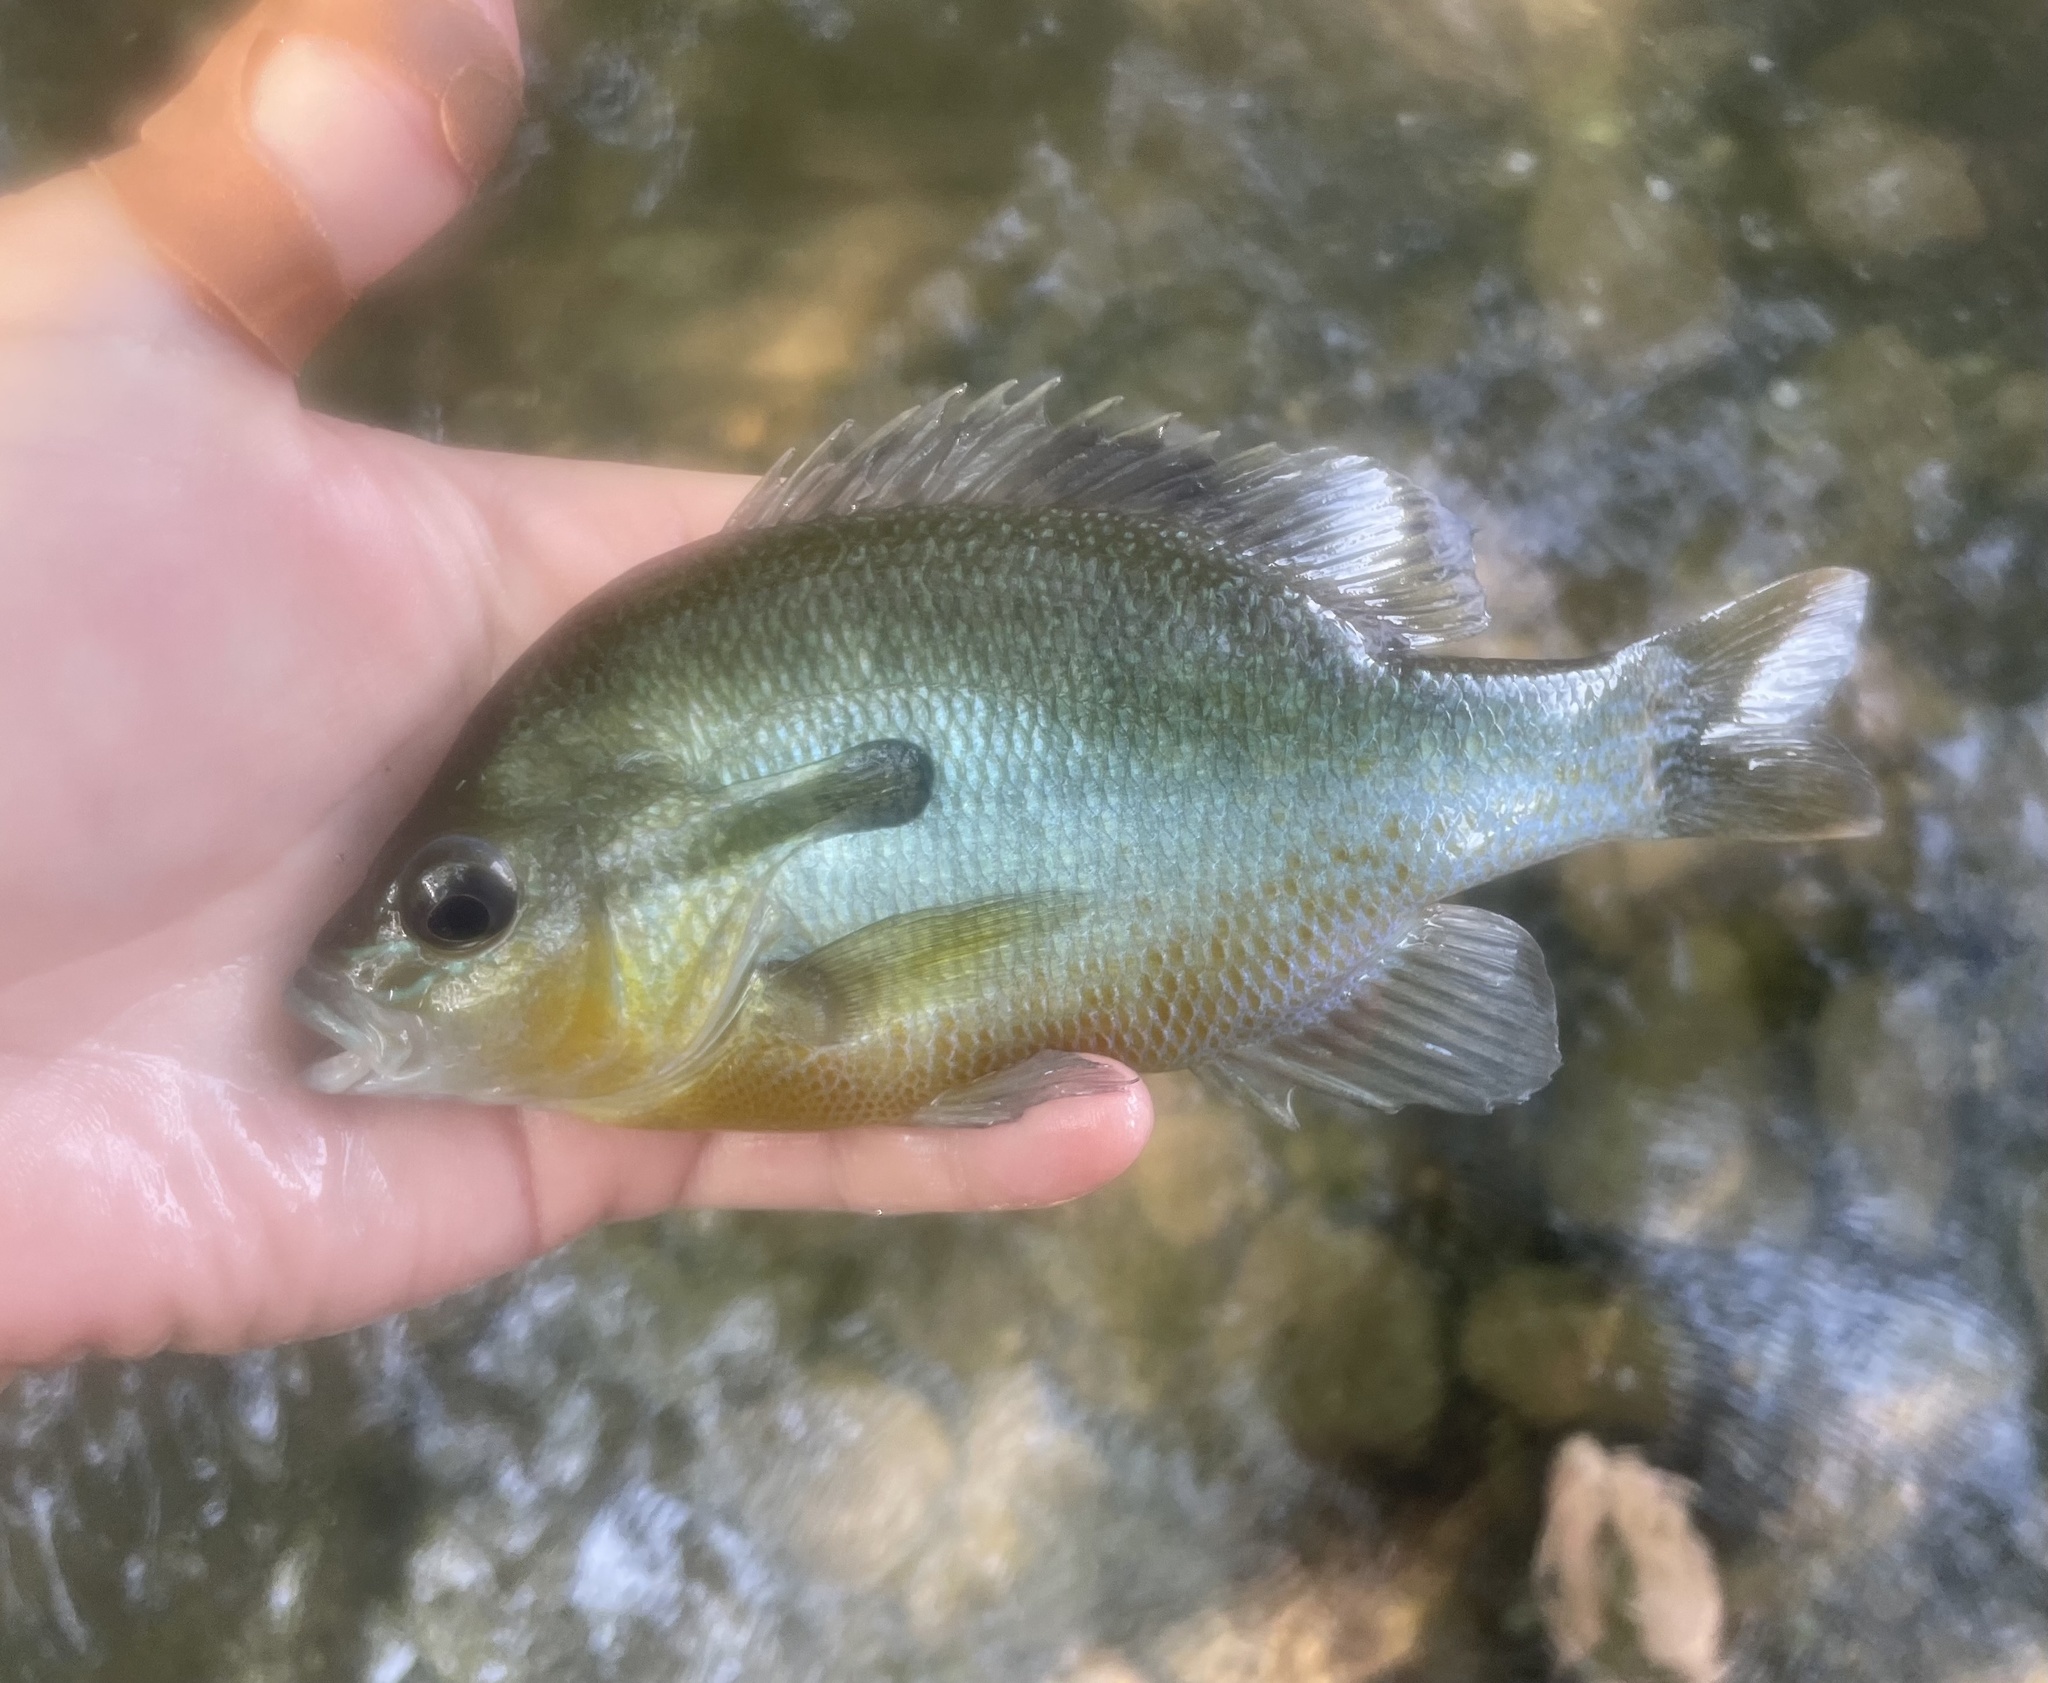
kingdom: Animalia
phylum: Chordata
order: Perciformes
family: Centrarchidae
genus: Lepomis
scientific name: Lepomis auritus
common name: Redbreast sunfish
